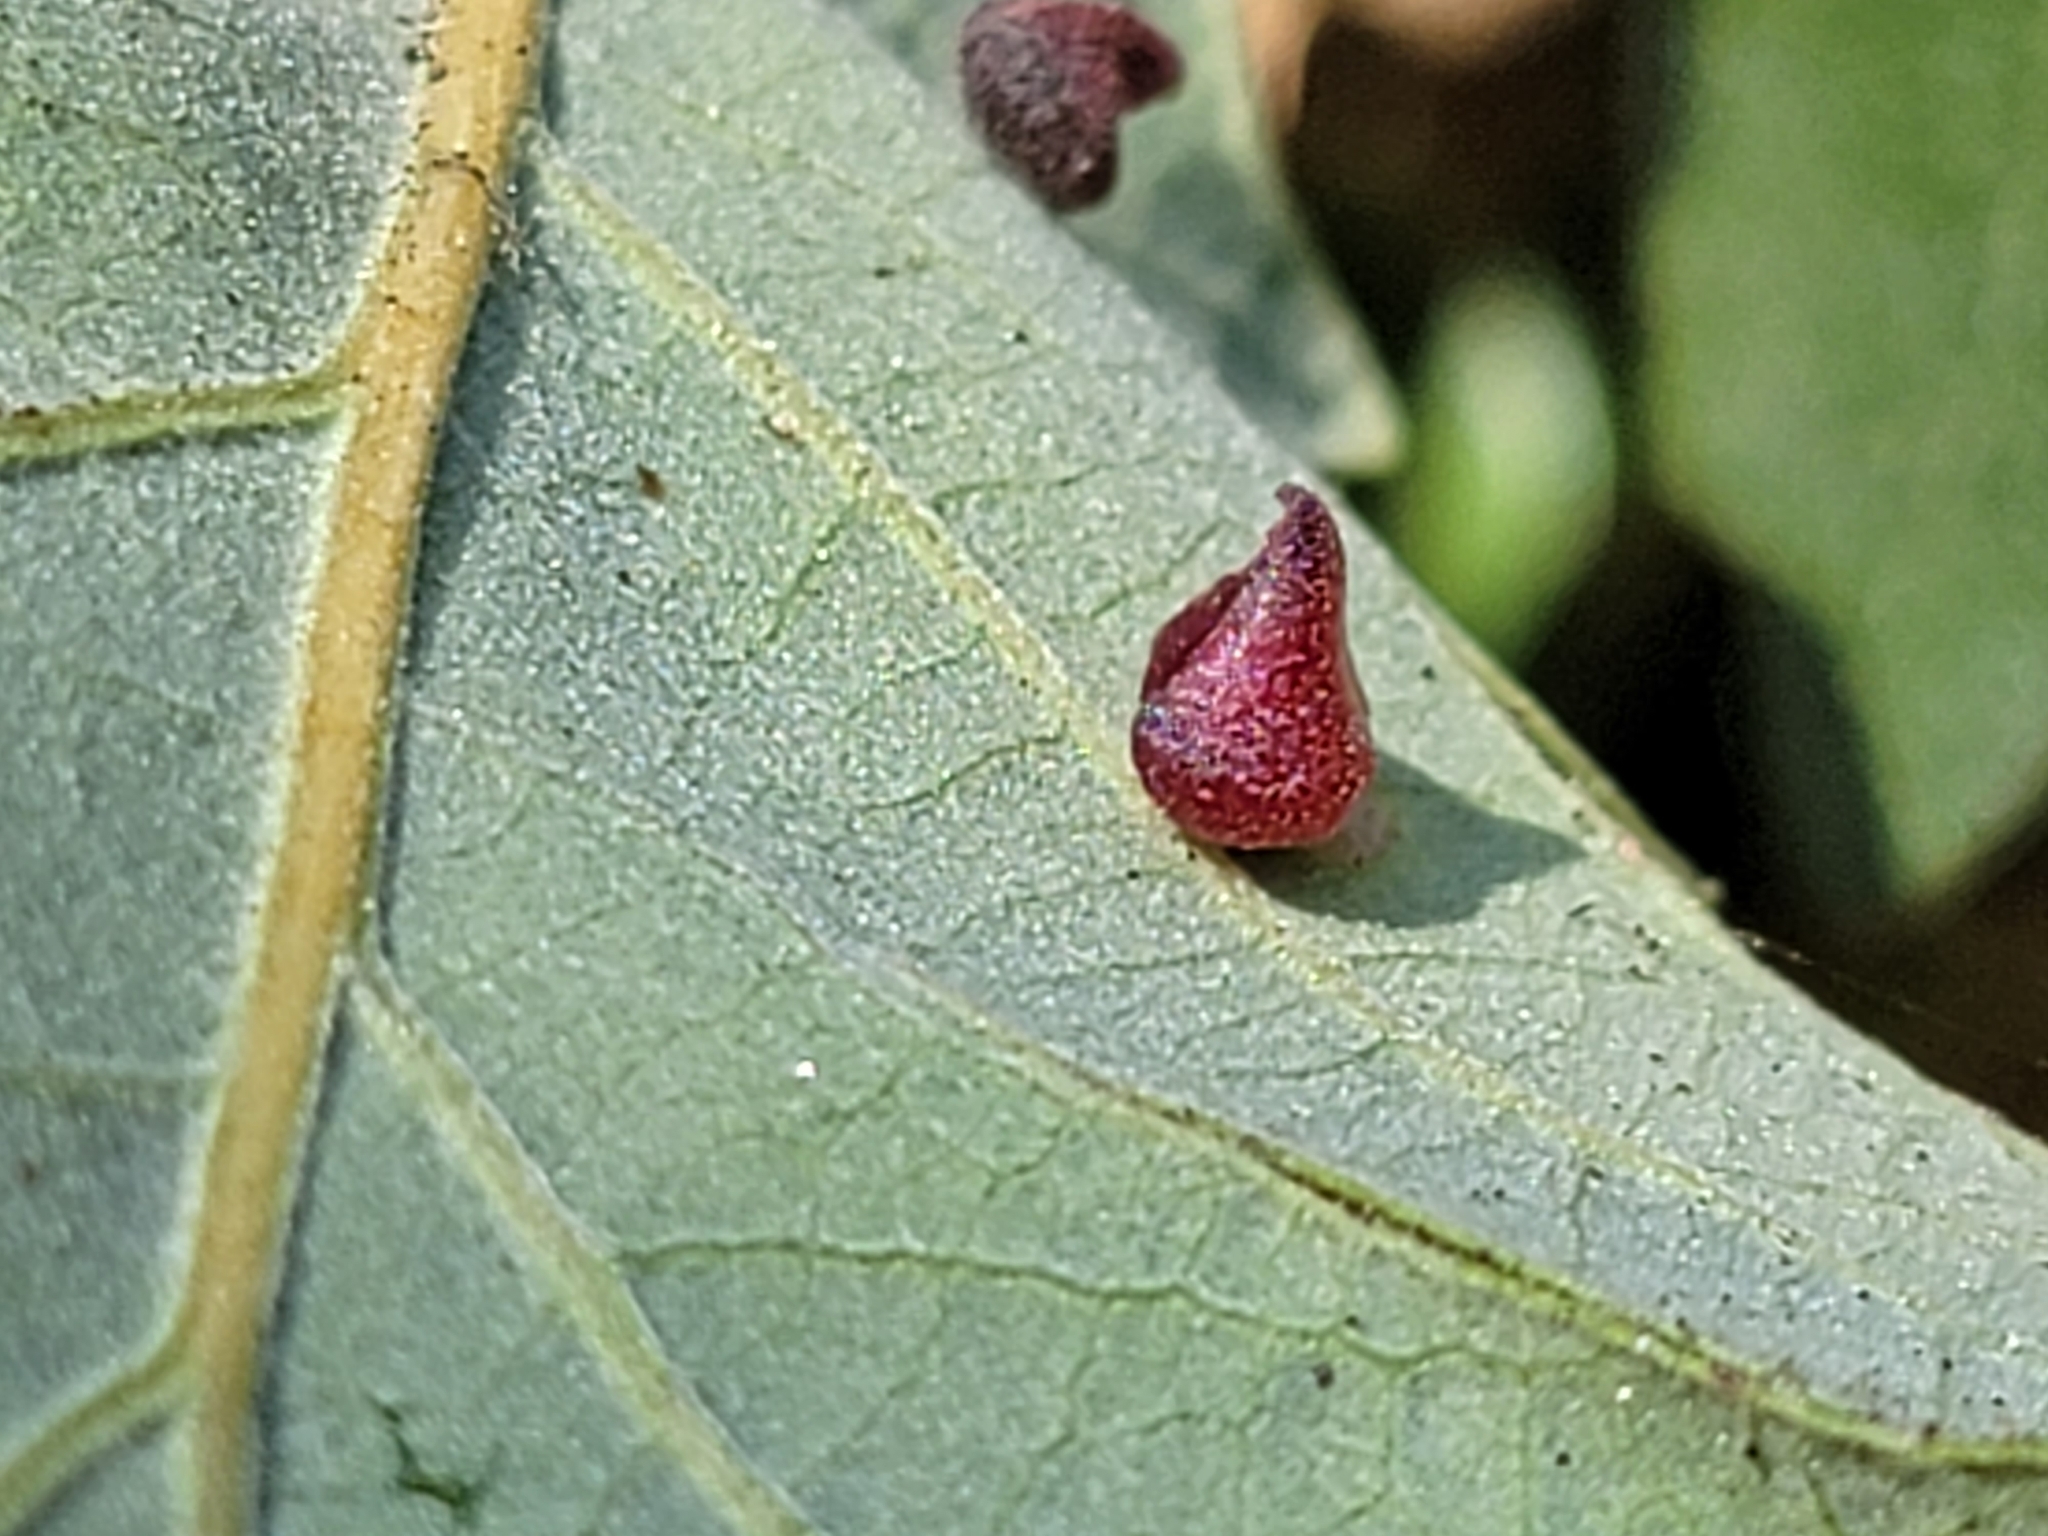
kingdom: Animalia
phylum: Arthropoda
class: Insecta
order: Hymenoptera
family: Cynipidae
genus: Andricus
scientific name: Andricus
